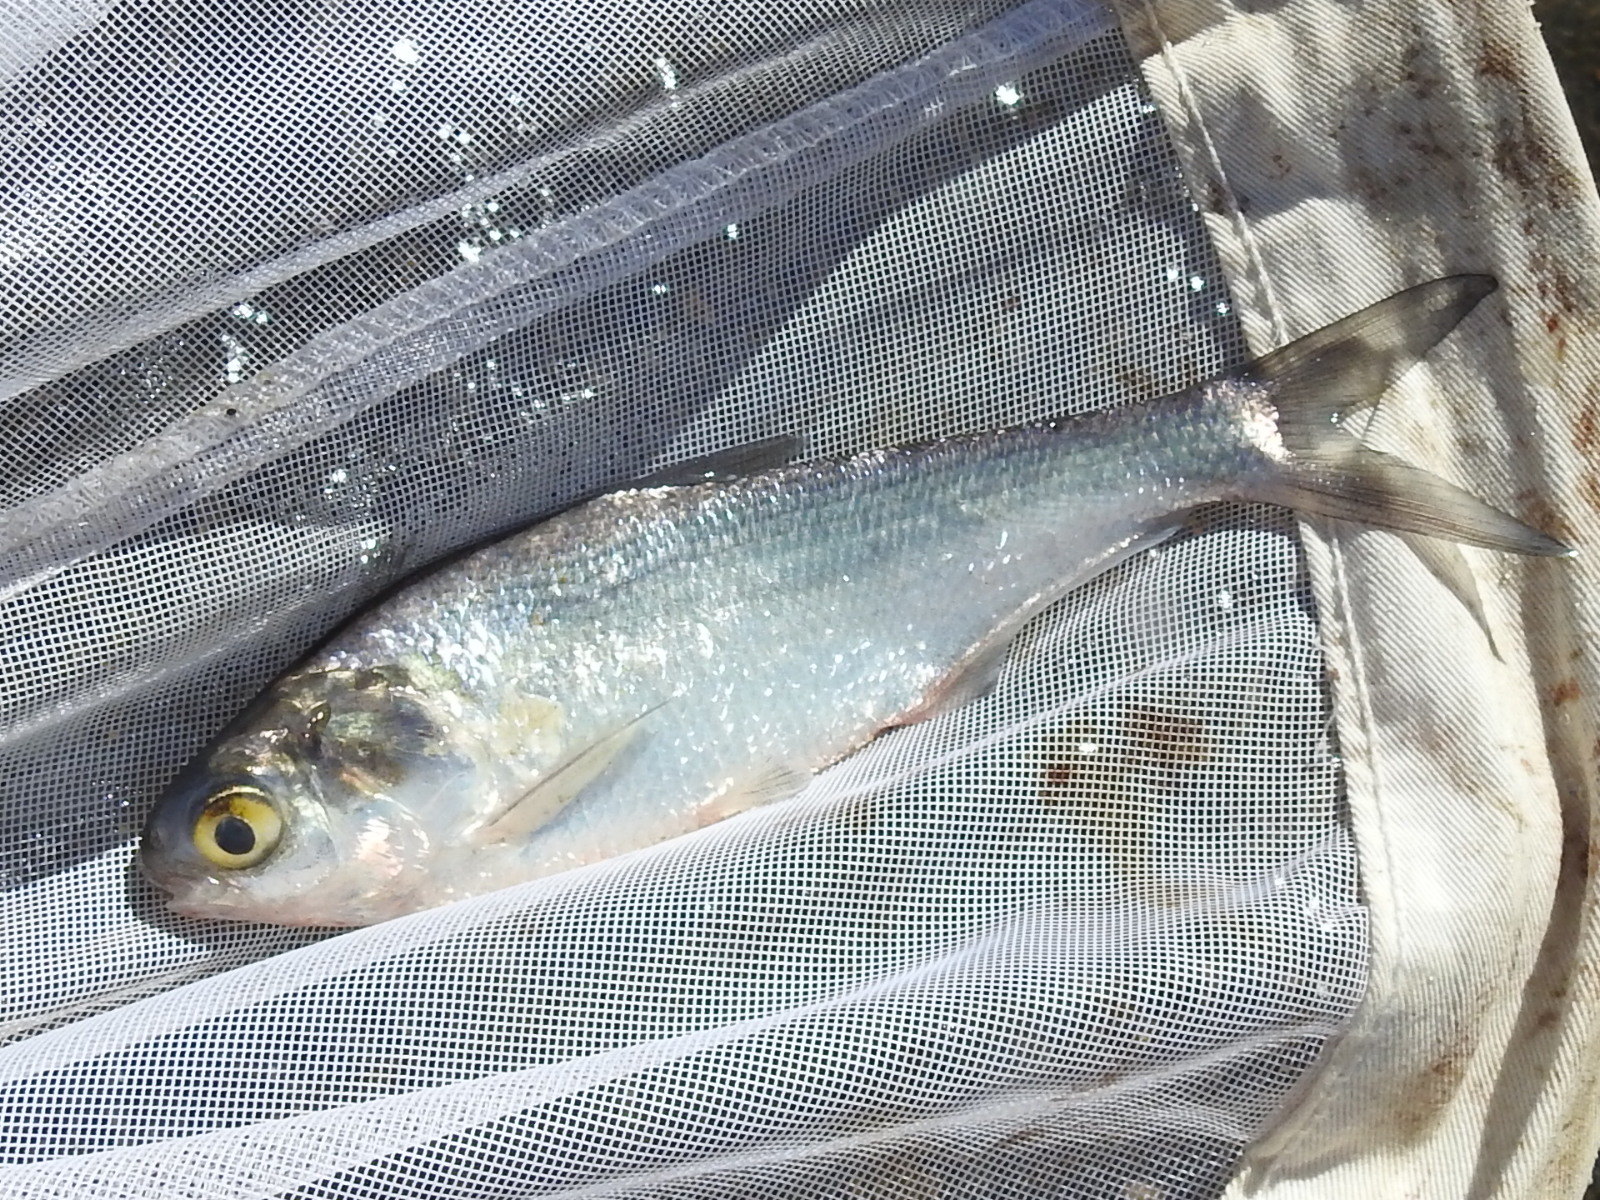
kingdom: Animalia
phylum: Chordata
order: Clupeiformes
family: Clupeidae
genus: Dorosoma
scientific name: Dorosoma cepedianum
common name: Gizzard shad
